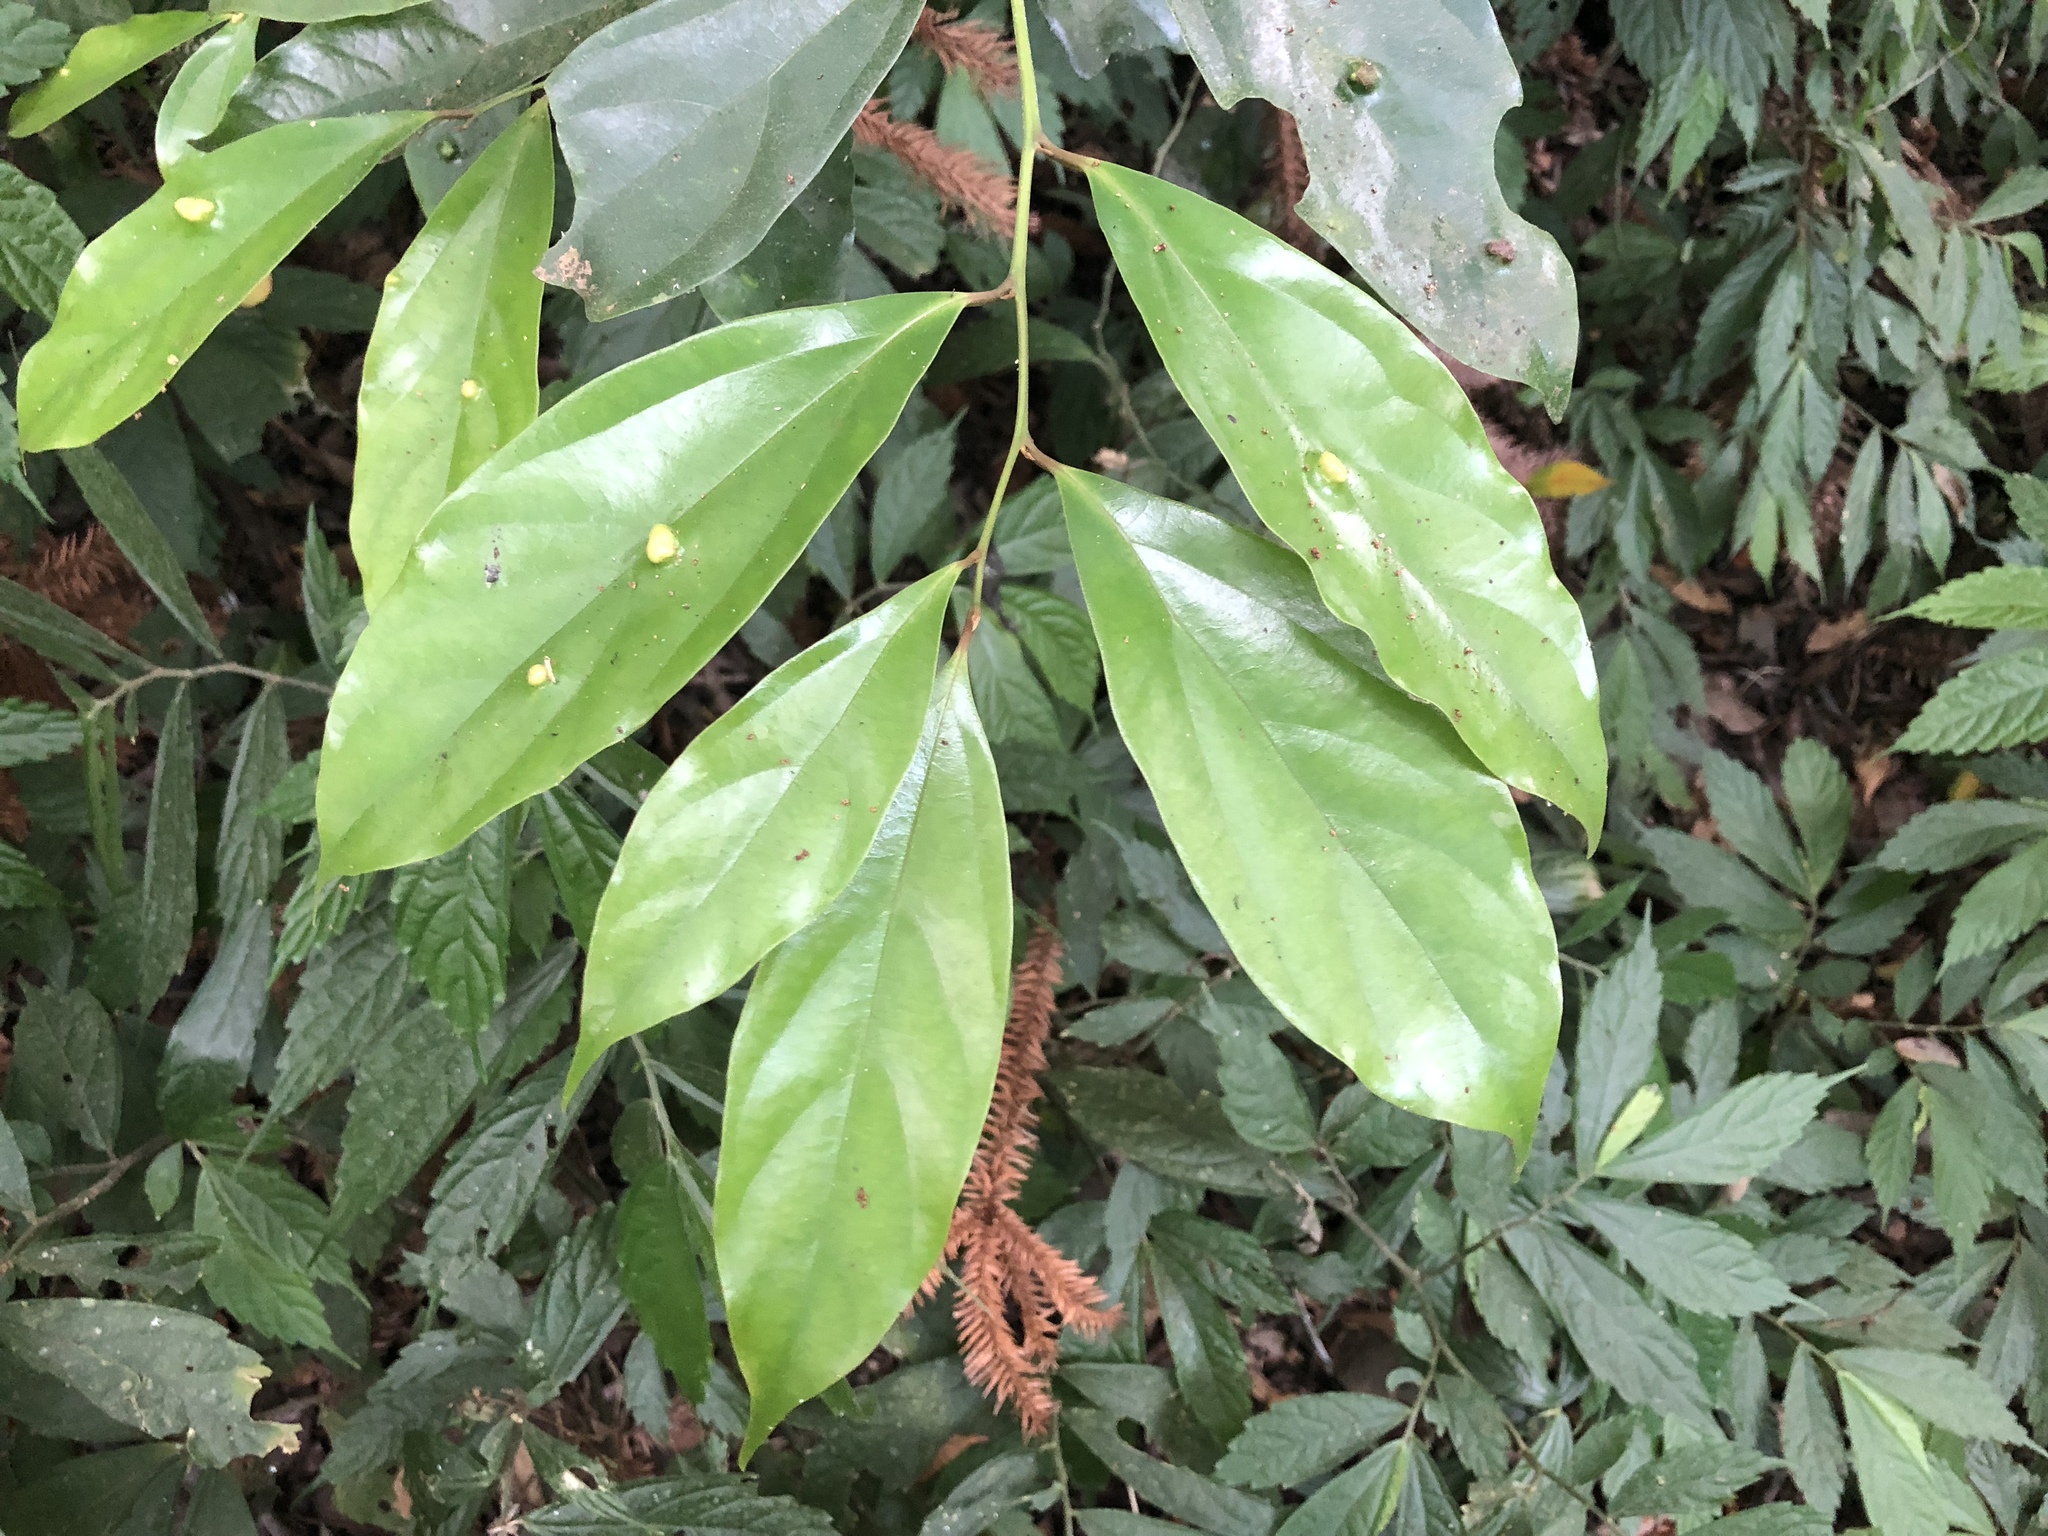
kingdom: Plantae
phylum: Tracheophyta
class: Magnoliopsida
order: Laurales
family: Lauraceae
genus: Cryptocarya
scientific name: Cryptocarya chinensis
